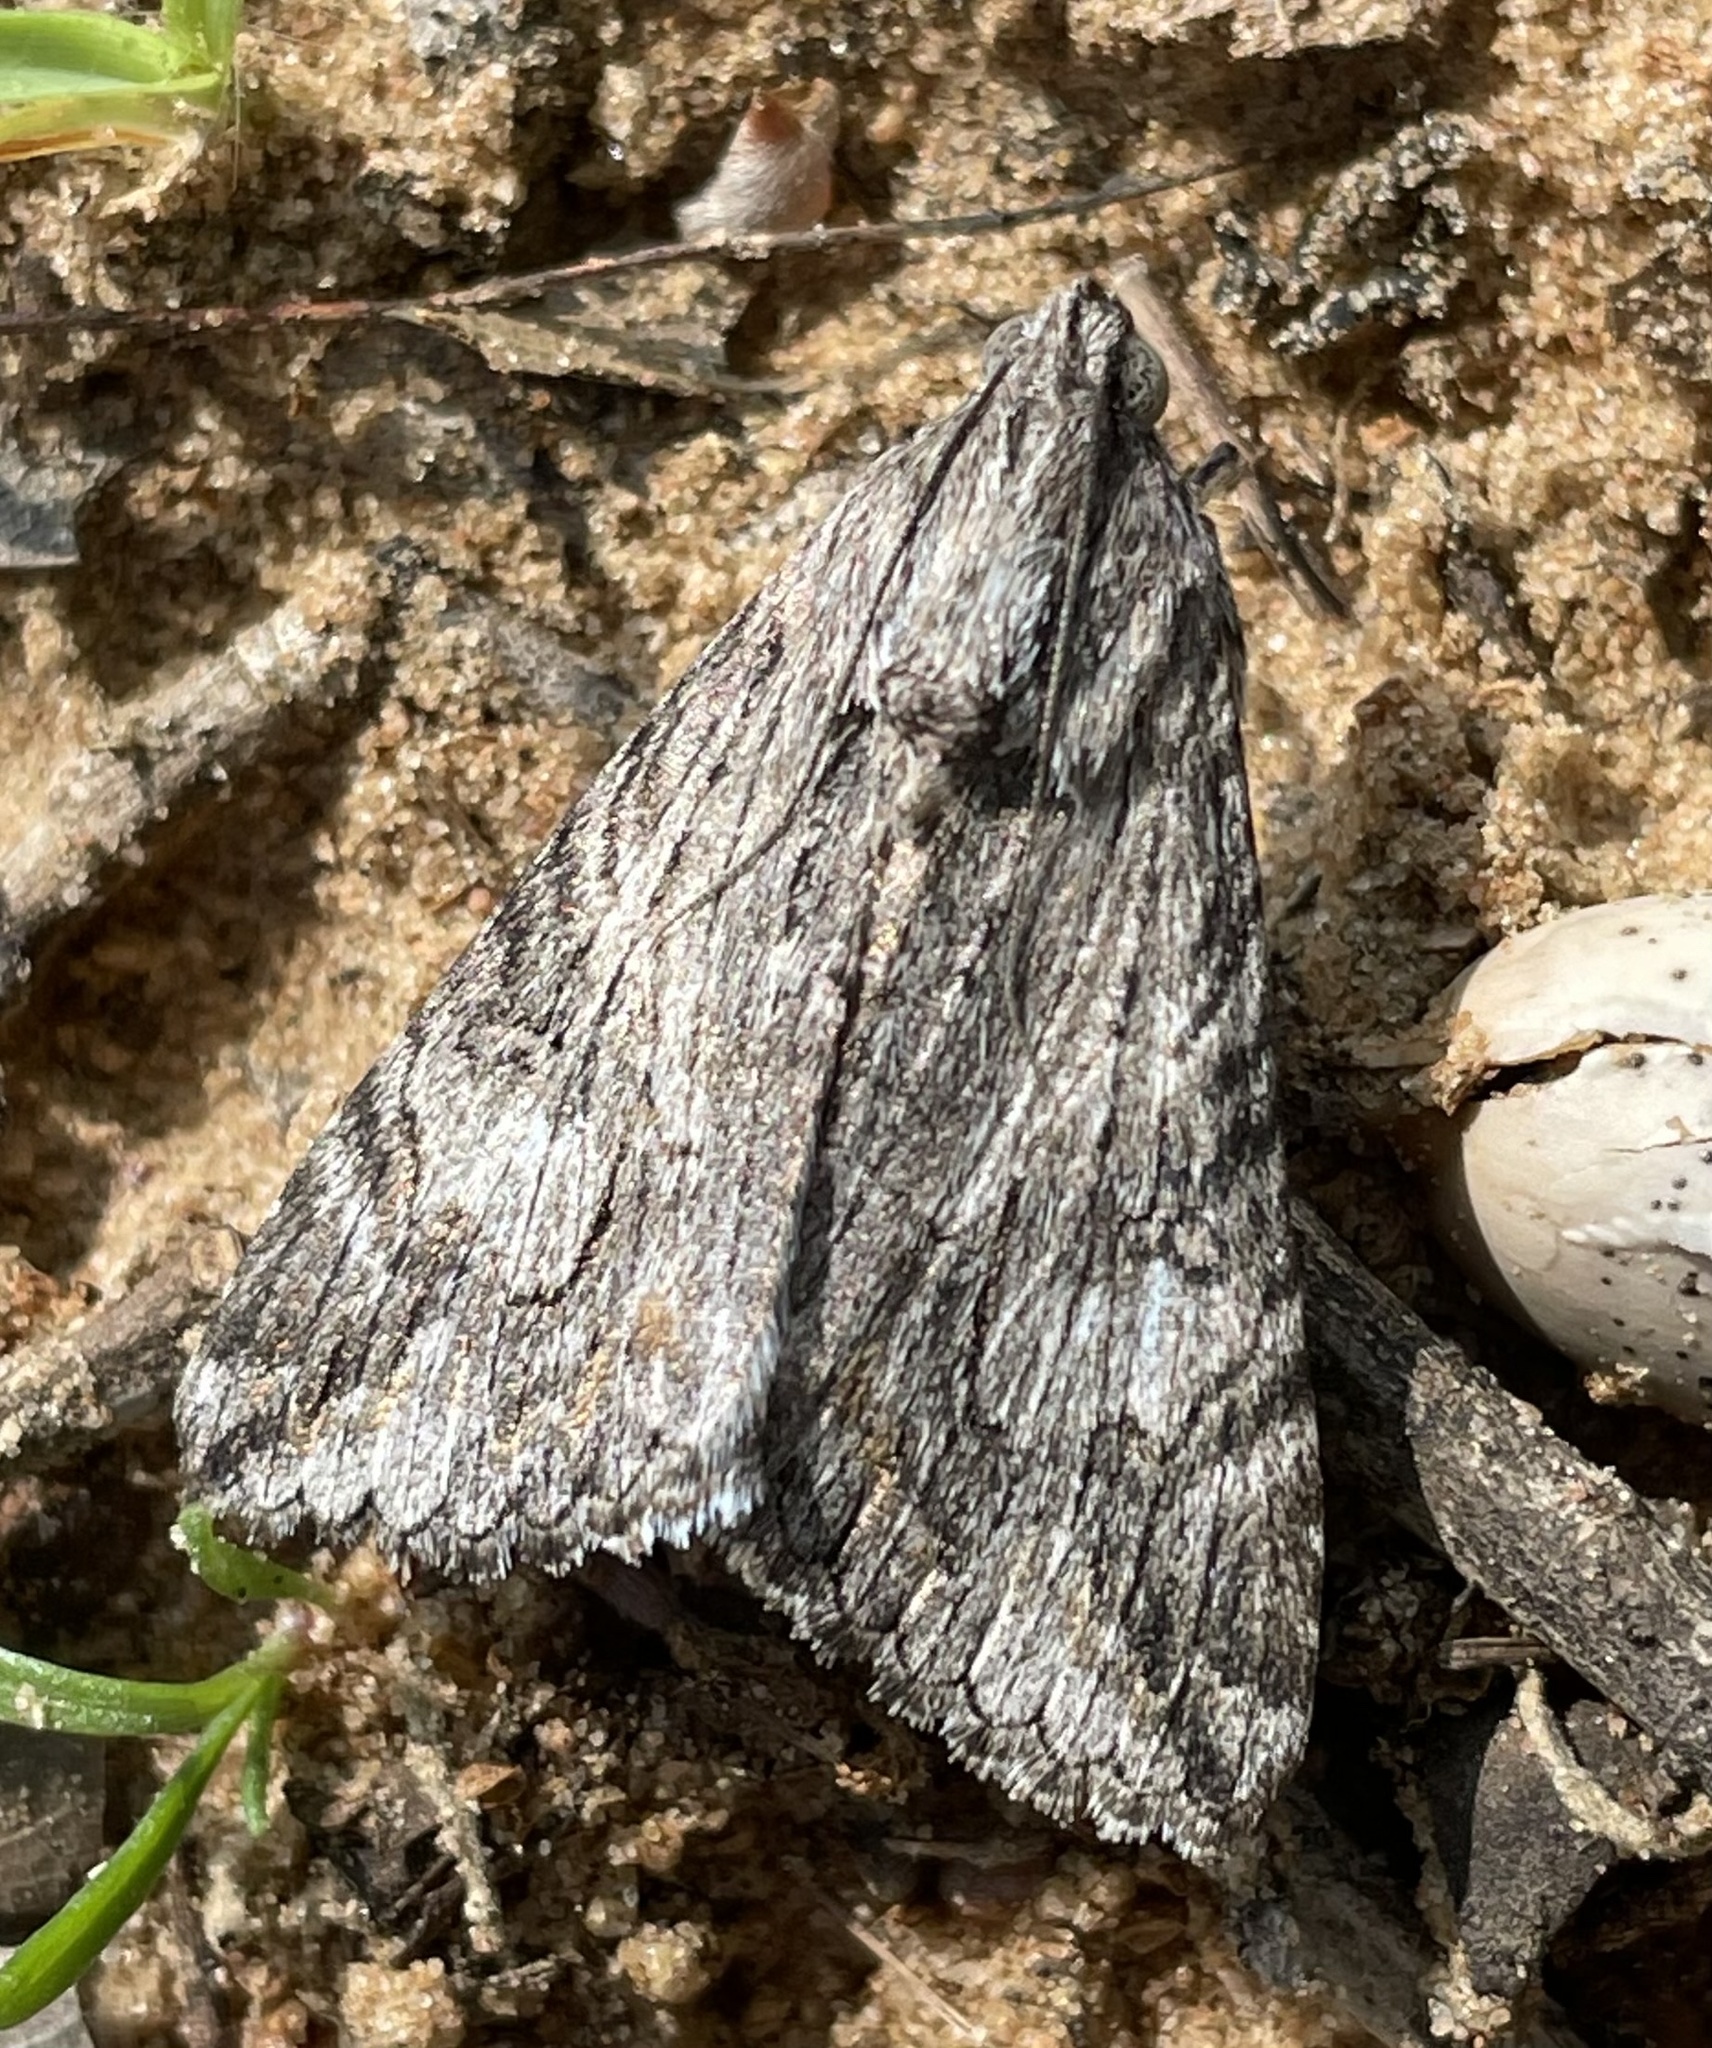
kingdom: Animalia
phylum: Arthropoda
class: Insecta
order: Lepidoptera
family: Erebidae
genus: Melipotis
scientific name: Melipotis jucunda
